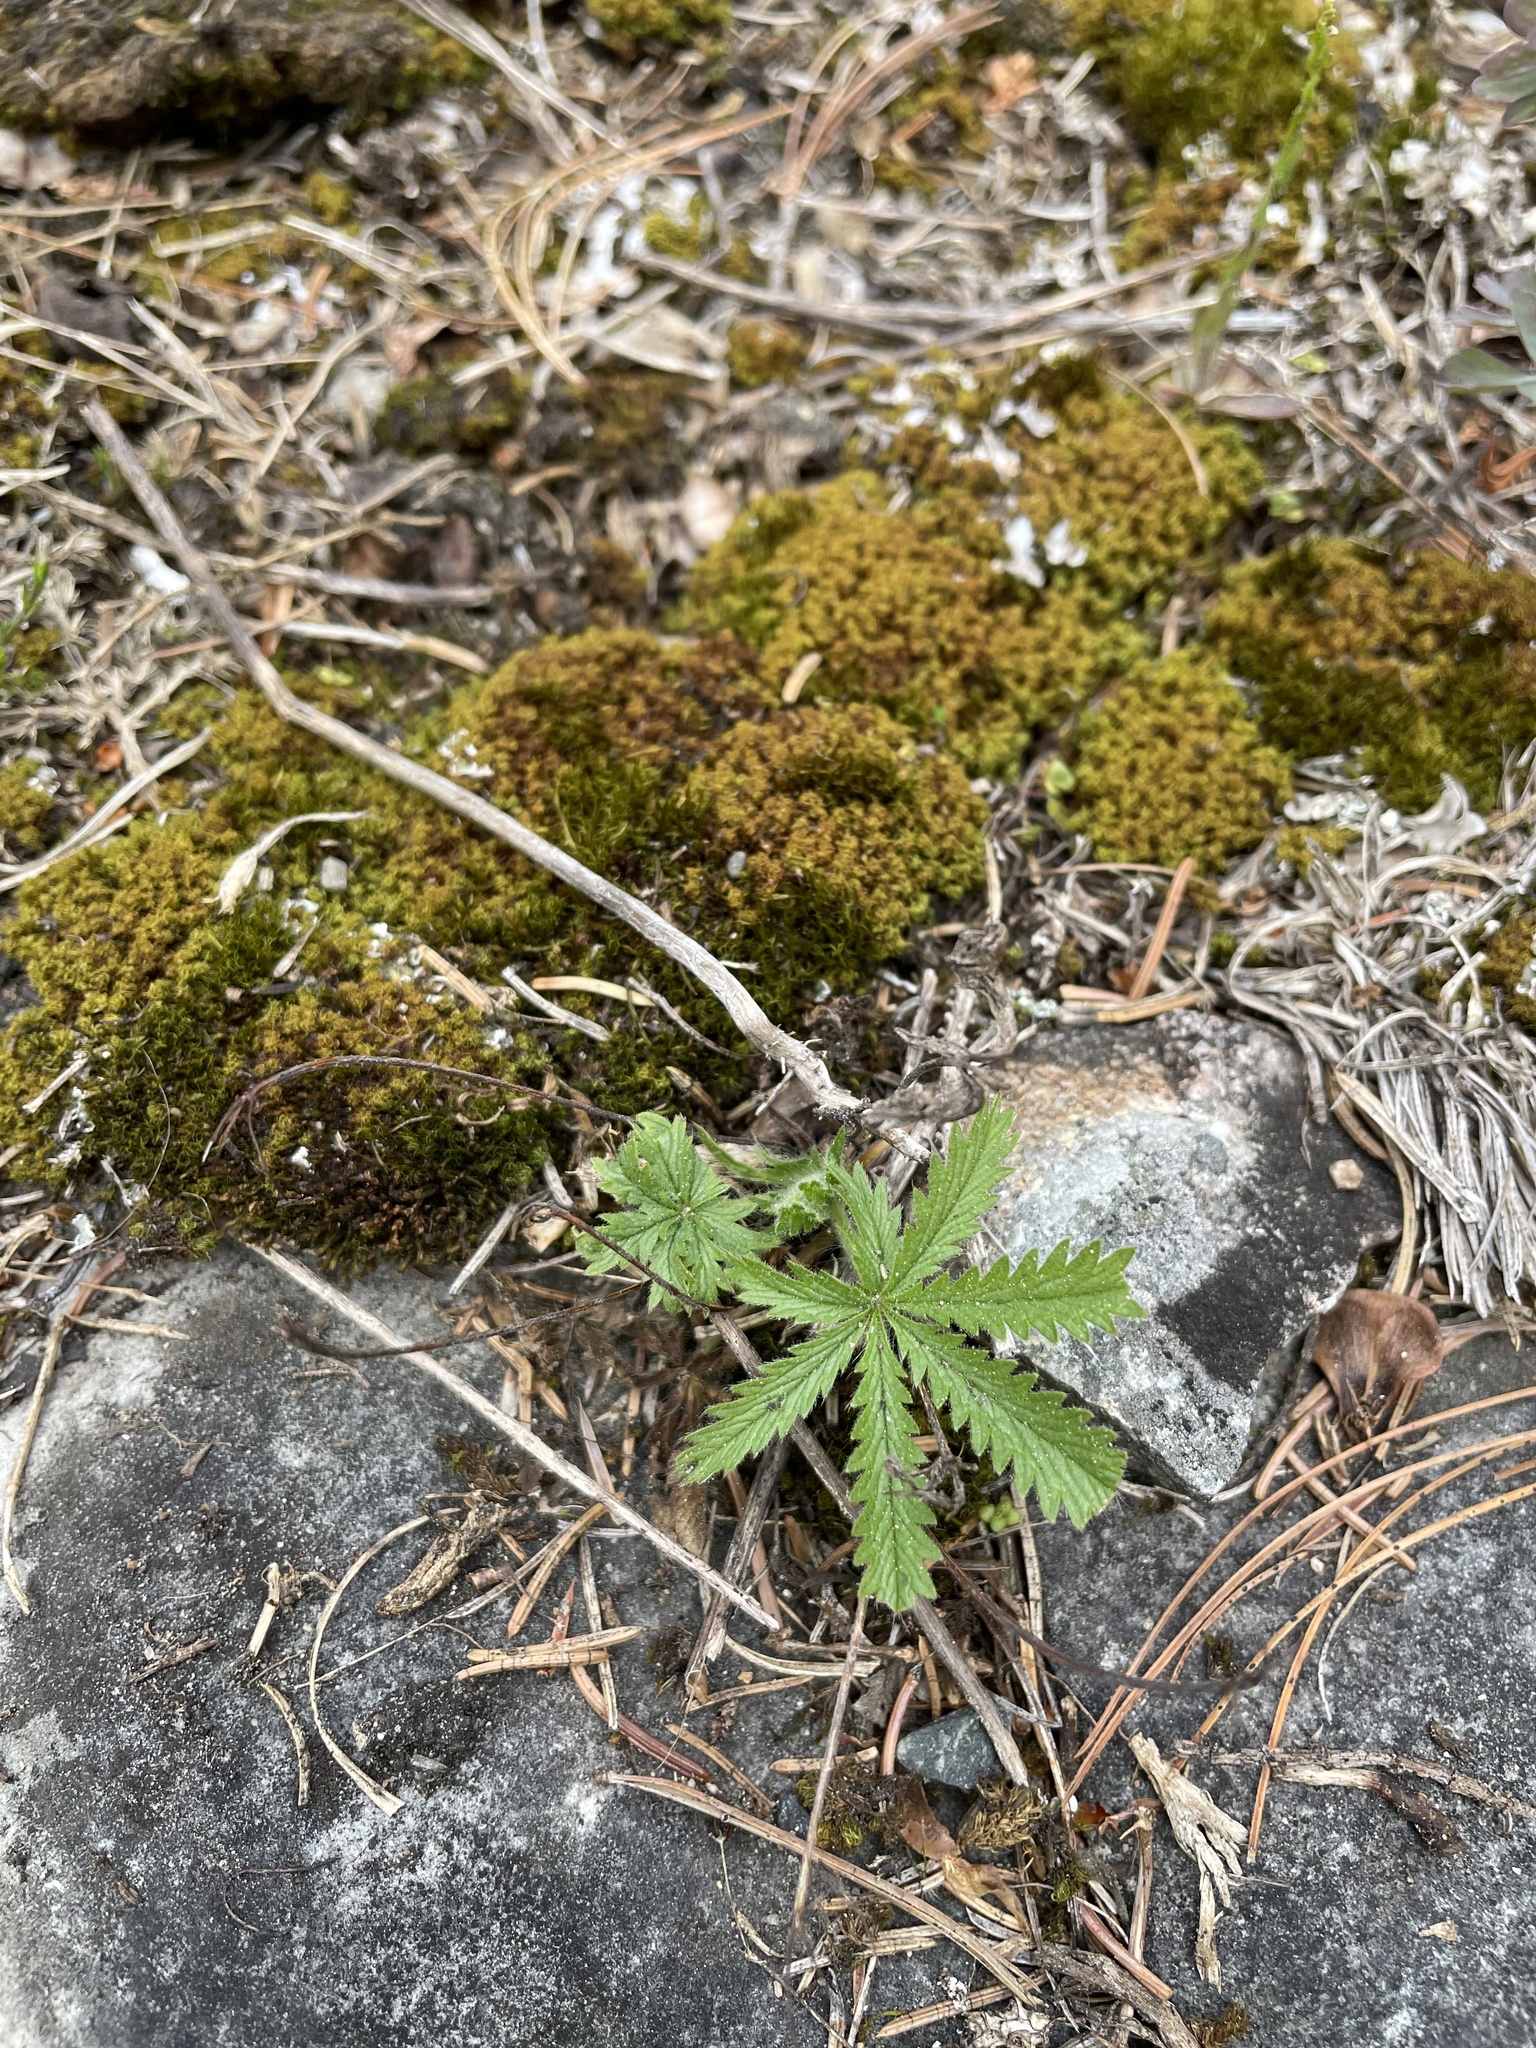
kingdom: Plantae
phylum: Tracheophyta
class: Magnoliopsida
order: Rosales
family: Rosaceae
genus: Potentilla
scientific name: Potentilla recta
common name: Sulphur cinquefoil
